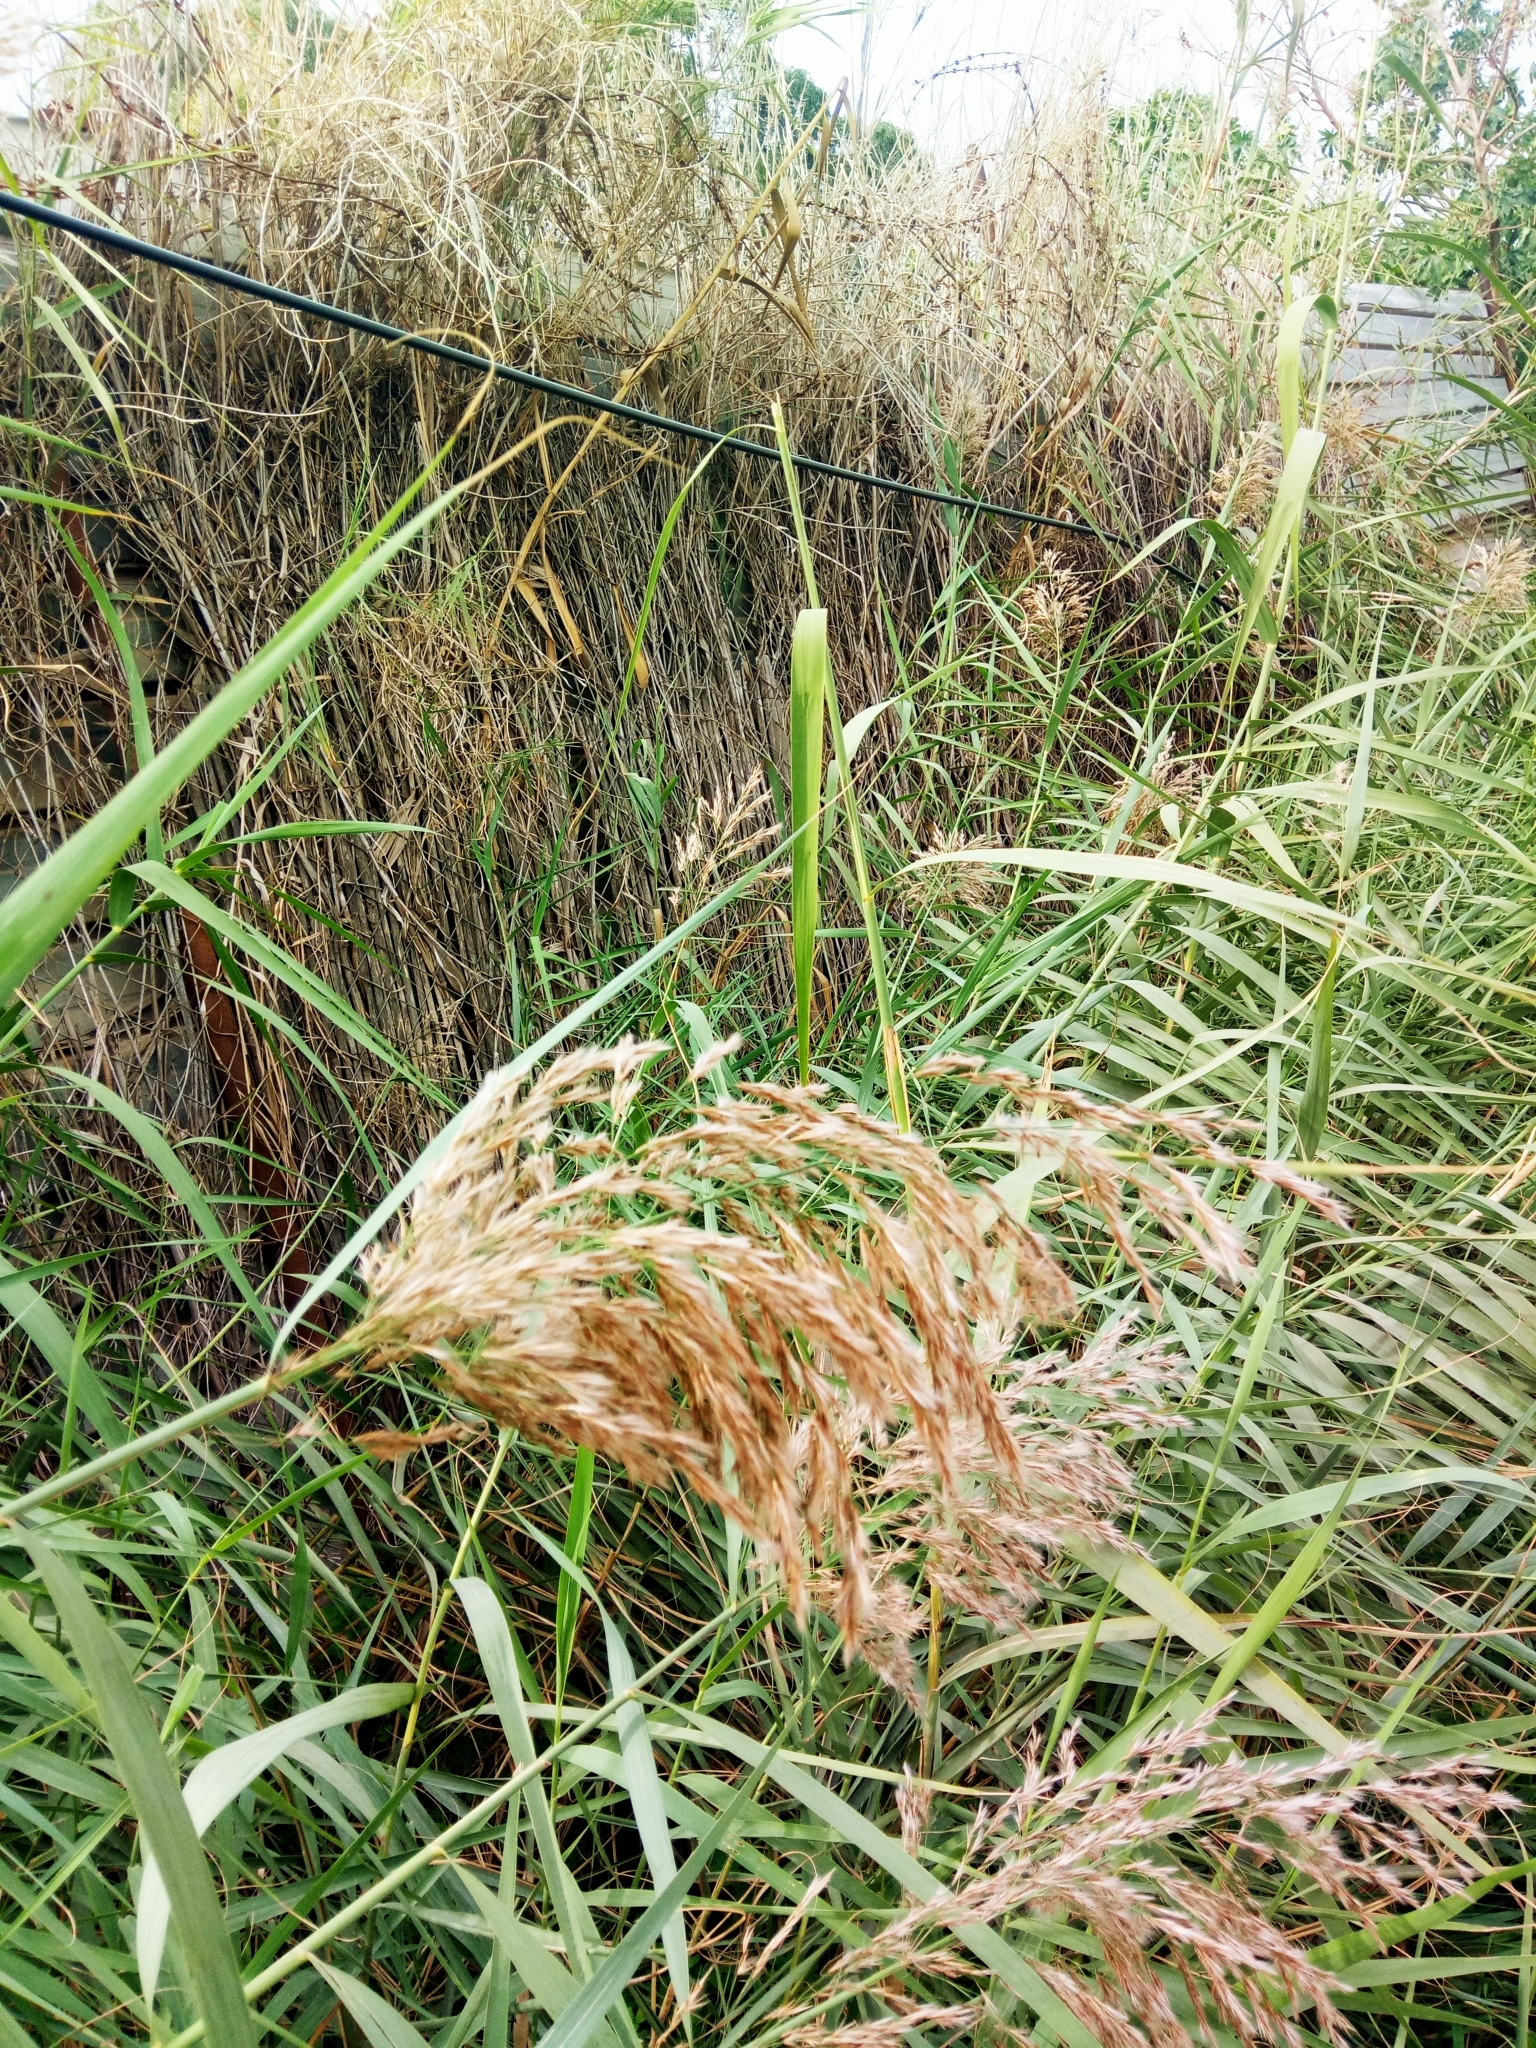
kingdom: Plantae
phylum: Tracheophyta
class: Liliopsida
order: Poales
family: Poaceae
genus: Arundo
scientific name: Arundo donax
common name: Giant reed
